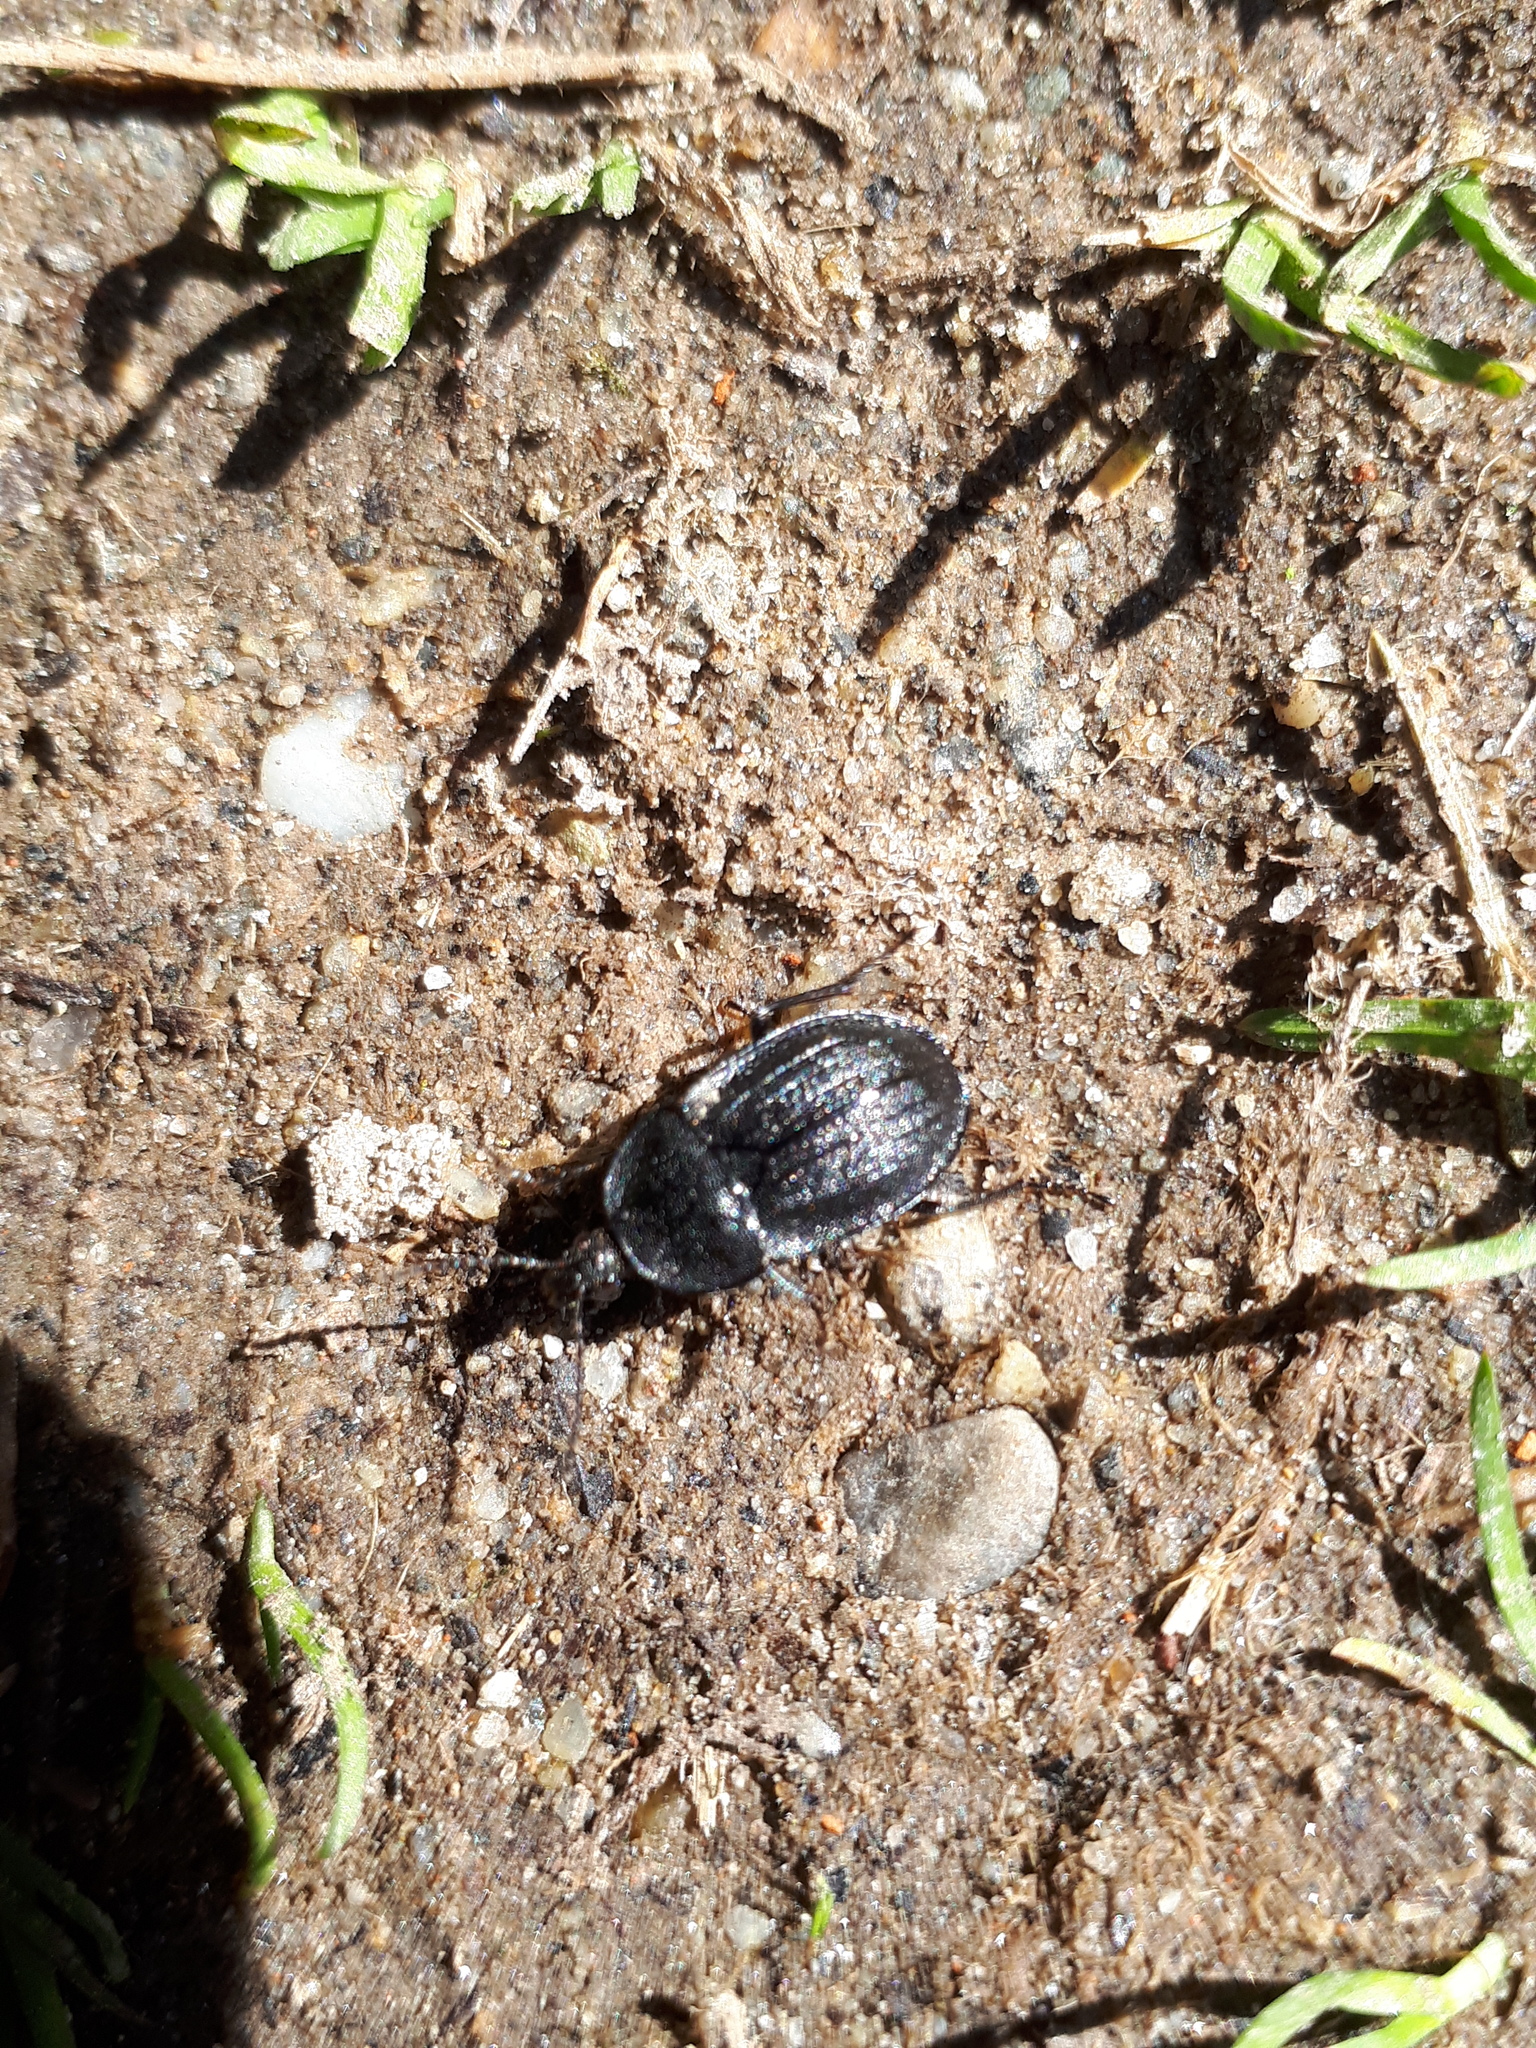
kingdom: Animalia
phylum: Arthropoda
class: Insecta
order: Coleoptera
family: Staphylinidae
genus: Silpha
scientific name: Silpha atrata
